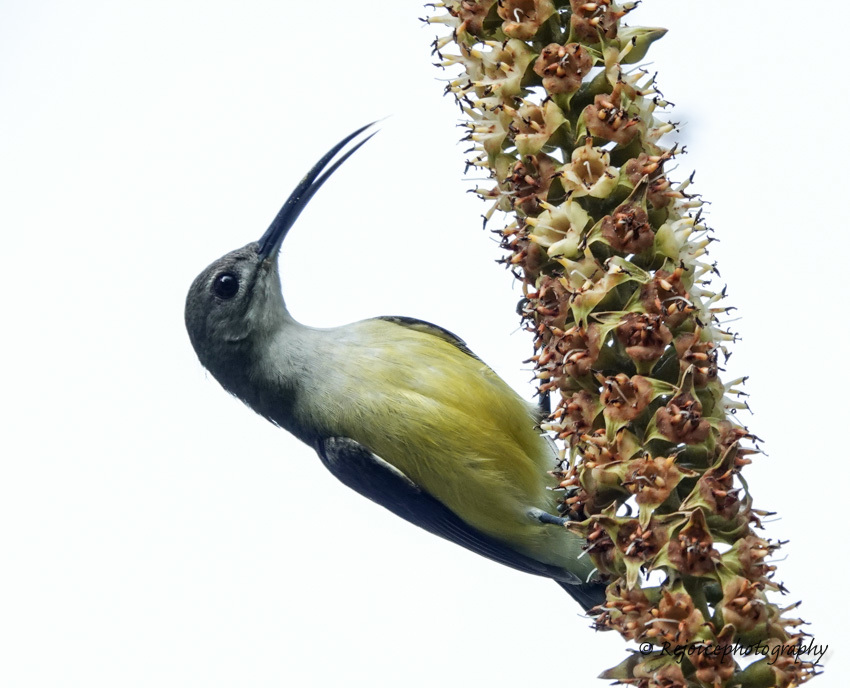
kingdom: Animalia
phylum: Chordata
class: Aves
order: Passeriformes
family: Nectariniidae
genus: Arachnothera
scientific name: Arachnothera longirostra
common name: Little spiderhunter
